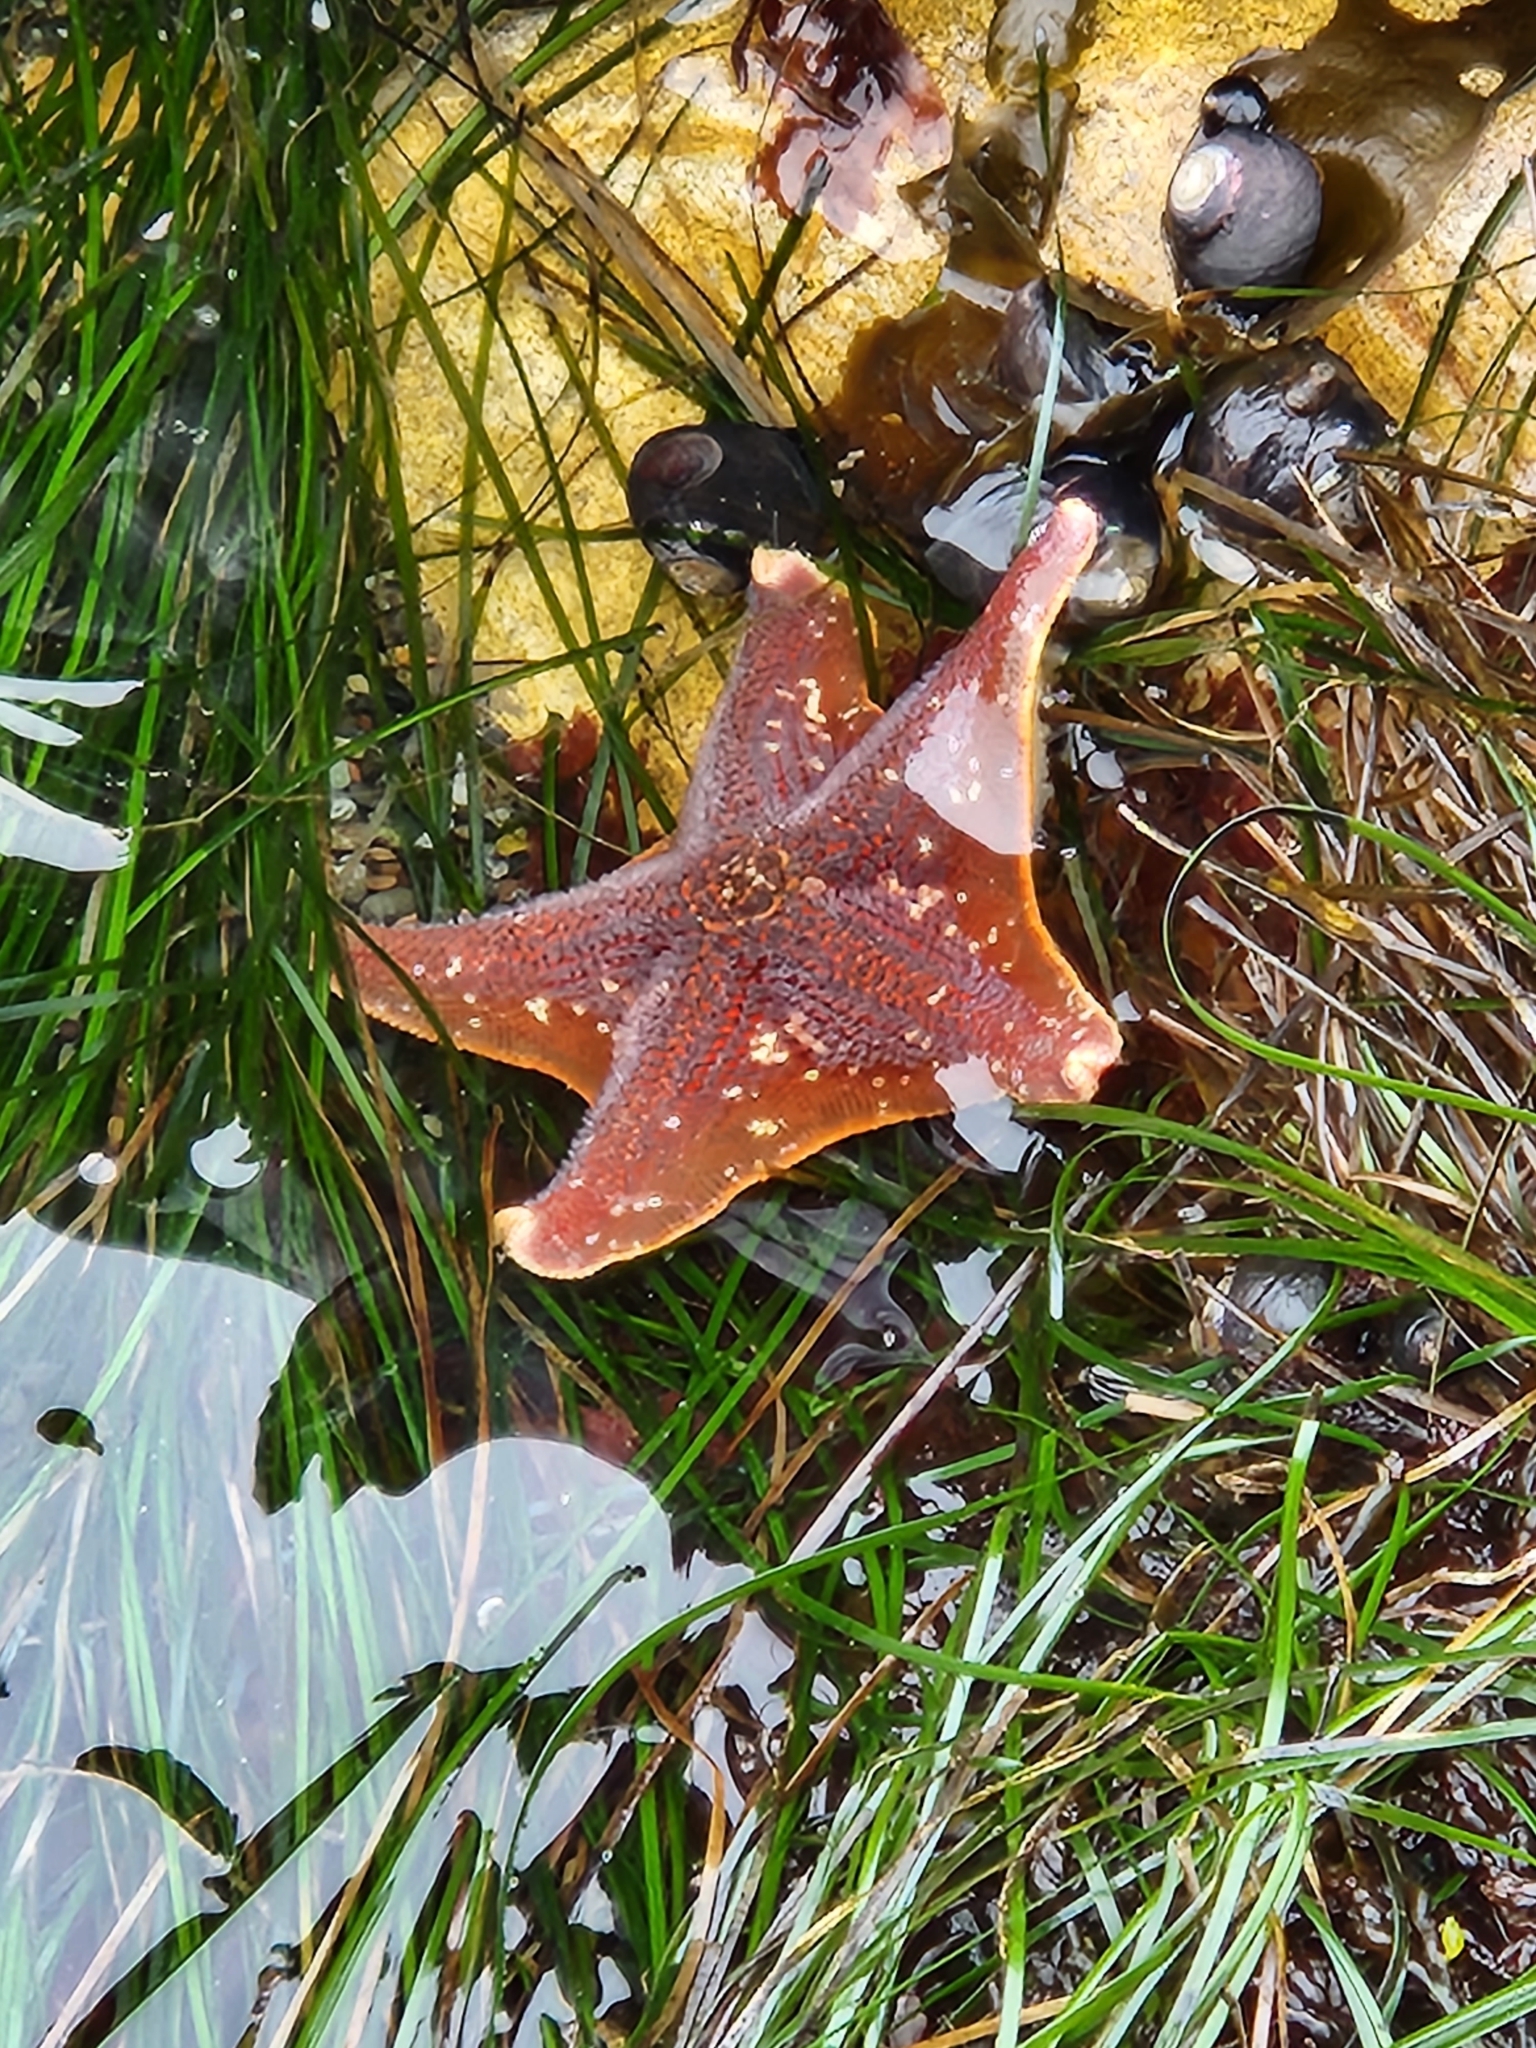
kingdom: Animalia
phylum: Echinodermata
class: Asteroidea
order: Valvatida
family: Asterinidae
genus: Patiria
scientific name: Patiria miniata
